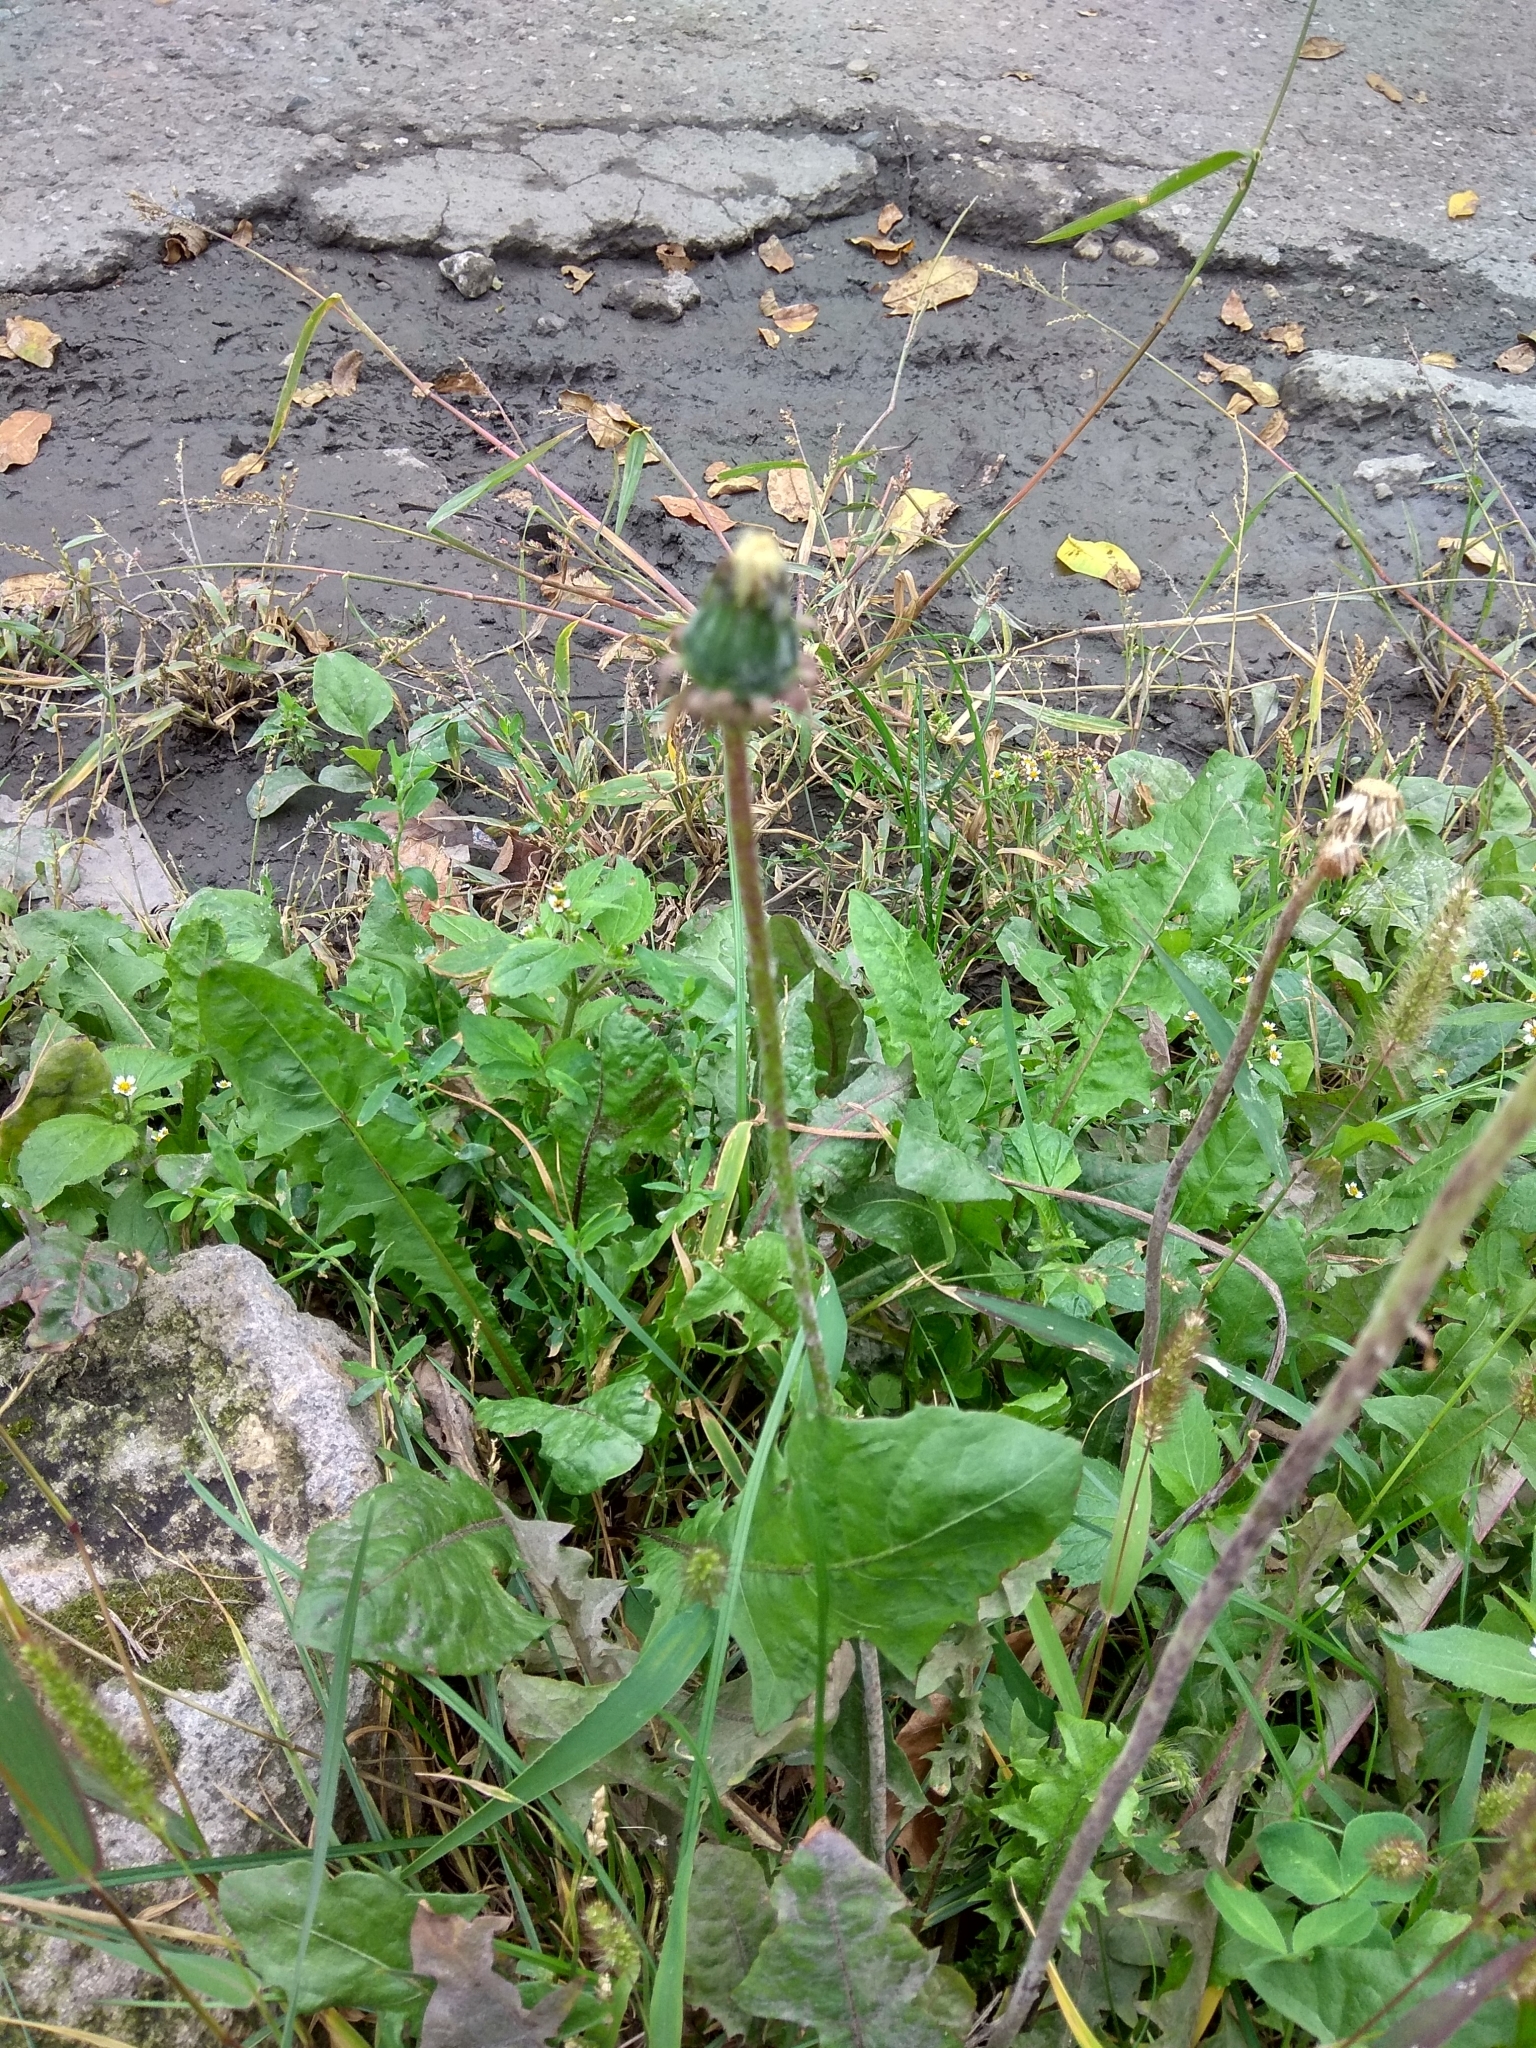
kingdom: Plantae
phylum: Tracheophyta
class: Magnoliopsida
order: Asterales
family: Asteraceae
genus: Taraxacum
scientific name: Taraxacum officinale
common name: Common dandelion
